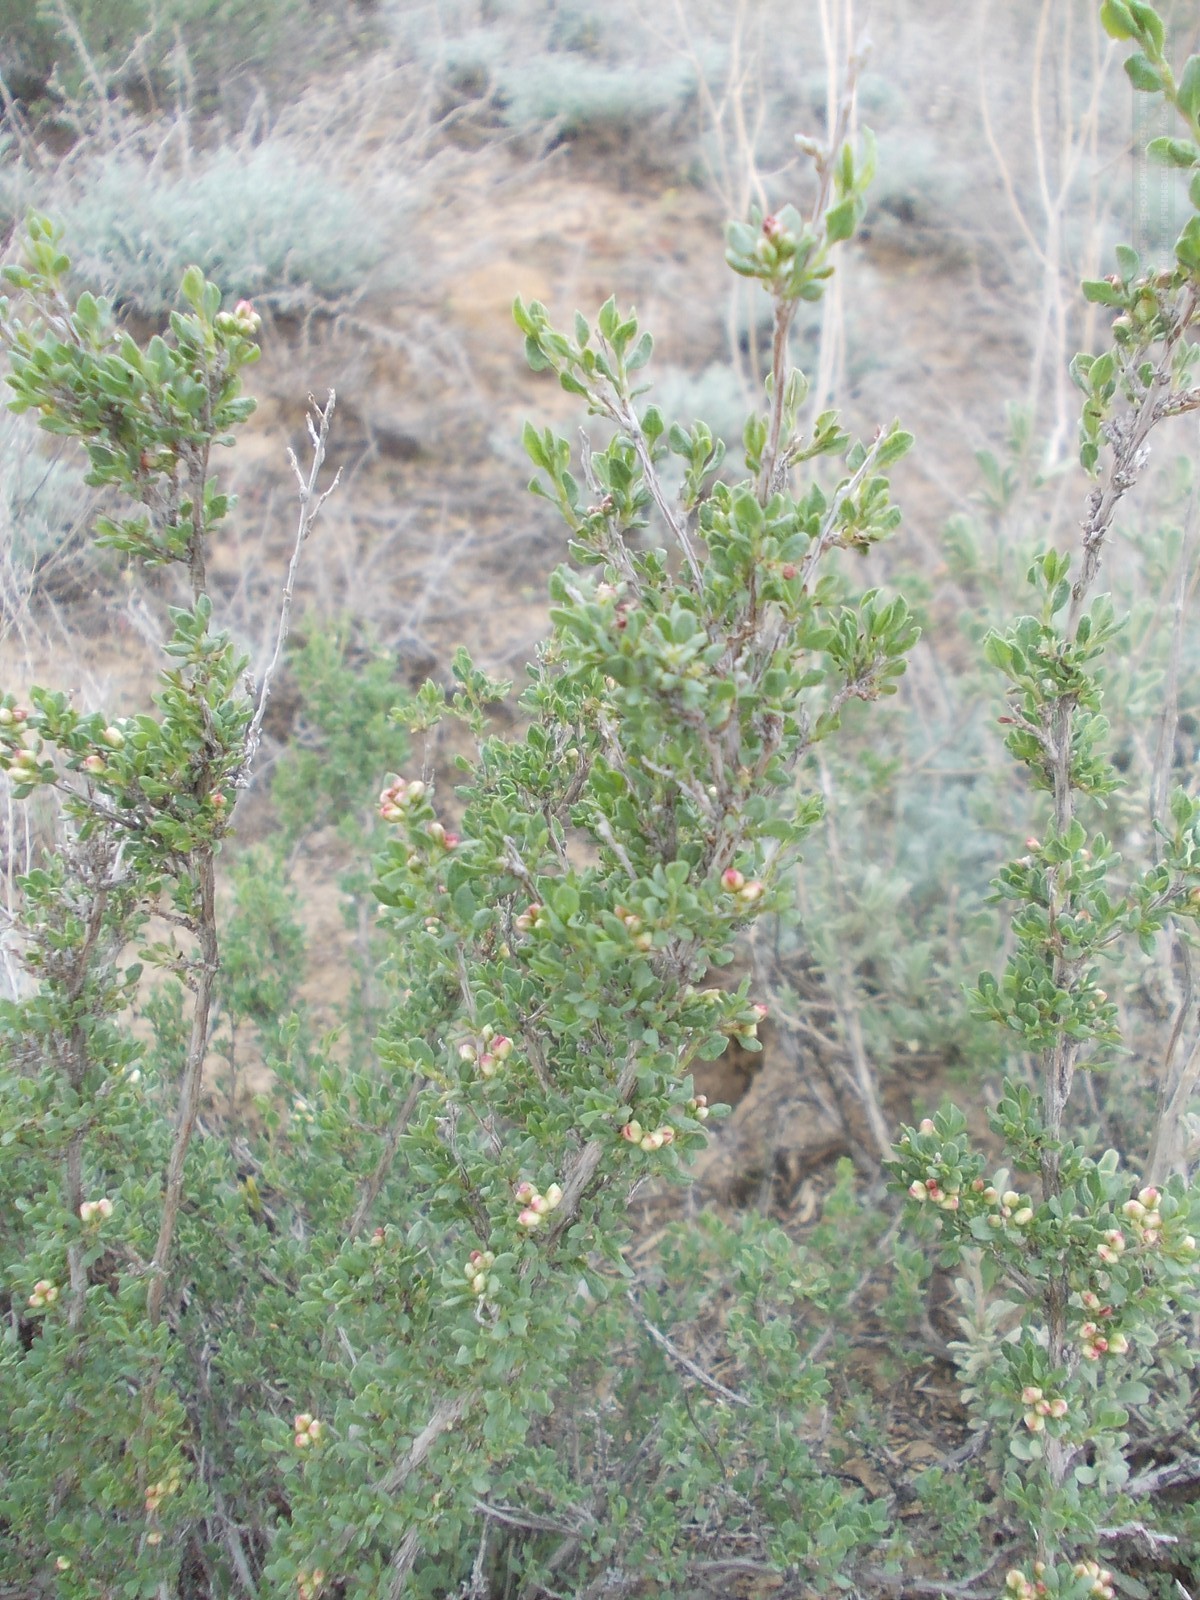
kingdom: Plantae
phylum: Tracheophyta
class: Magnoliopsida
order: Caryophyllales
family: Polygonaceae
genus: Atraphaxis
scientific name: Atraphaxis replicata
